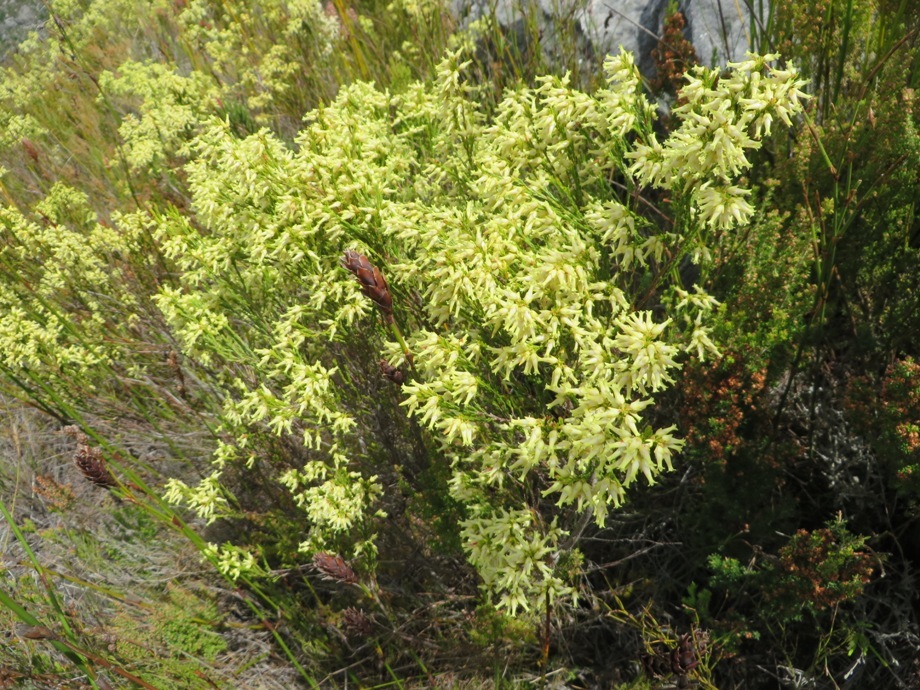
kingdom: Plantae
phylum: Tracheophyta
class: Magnoliopsida
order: Ericales
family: Ericaceae
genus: Erica
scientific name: Erica lutea
